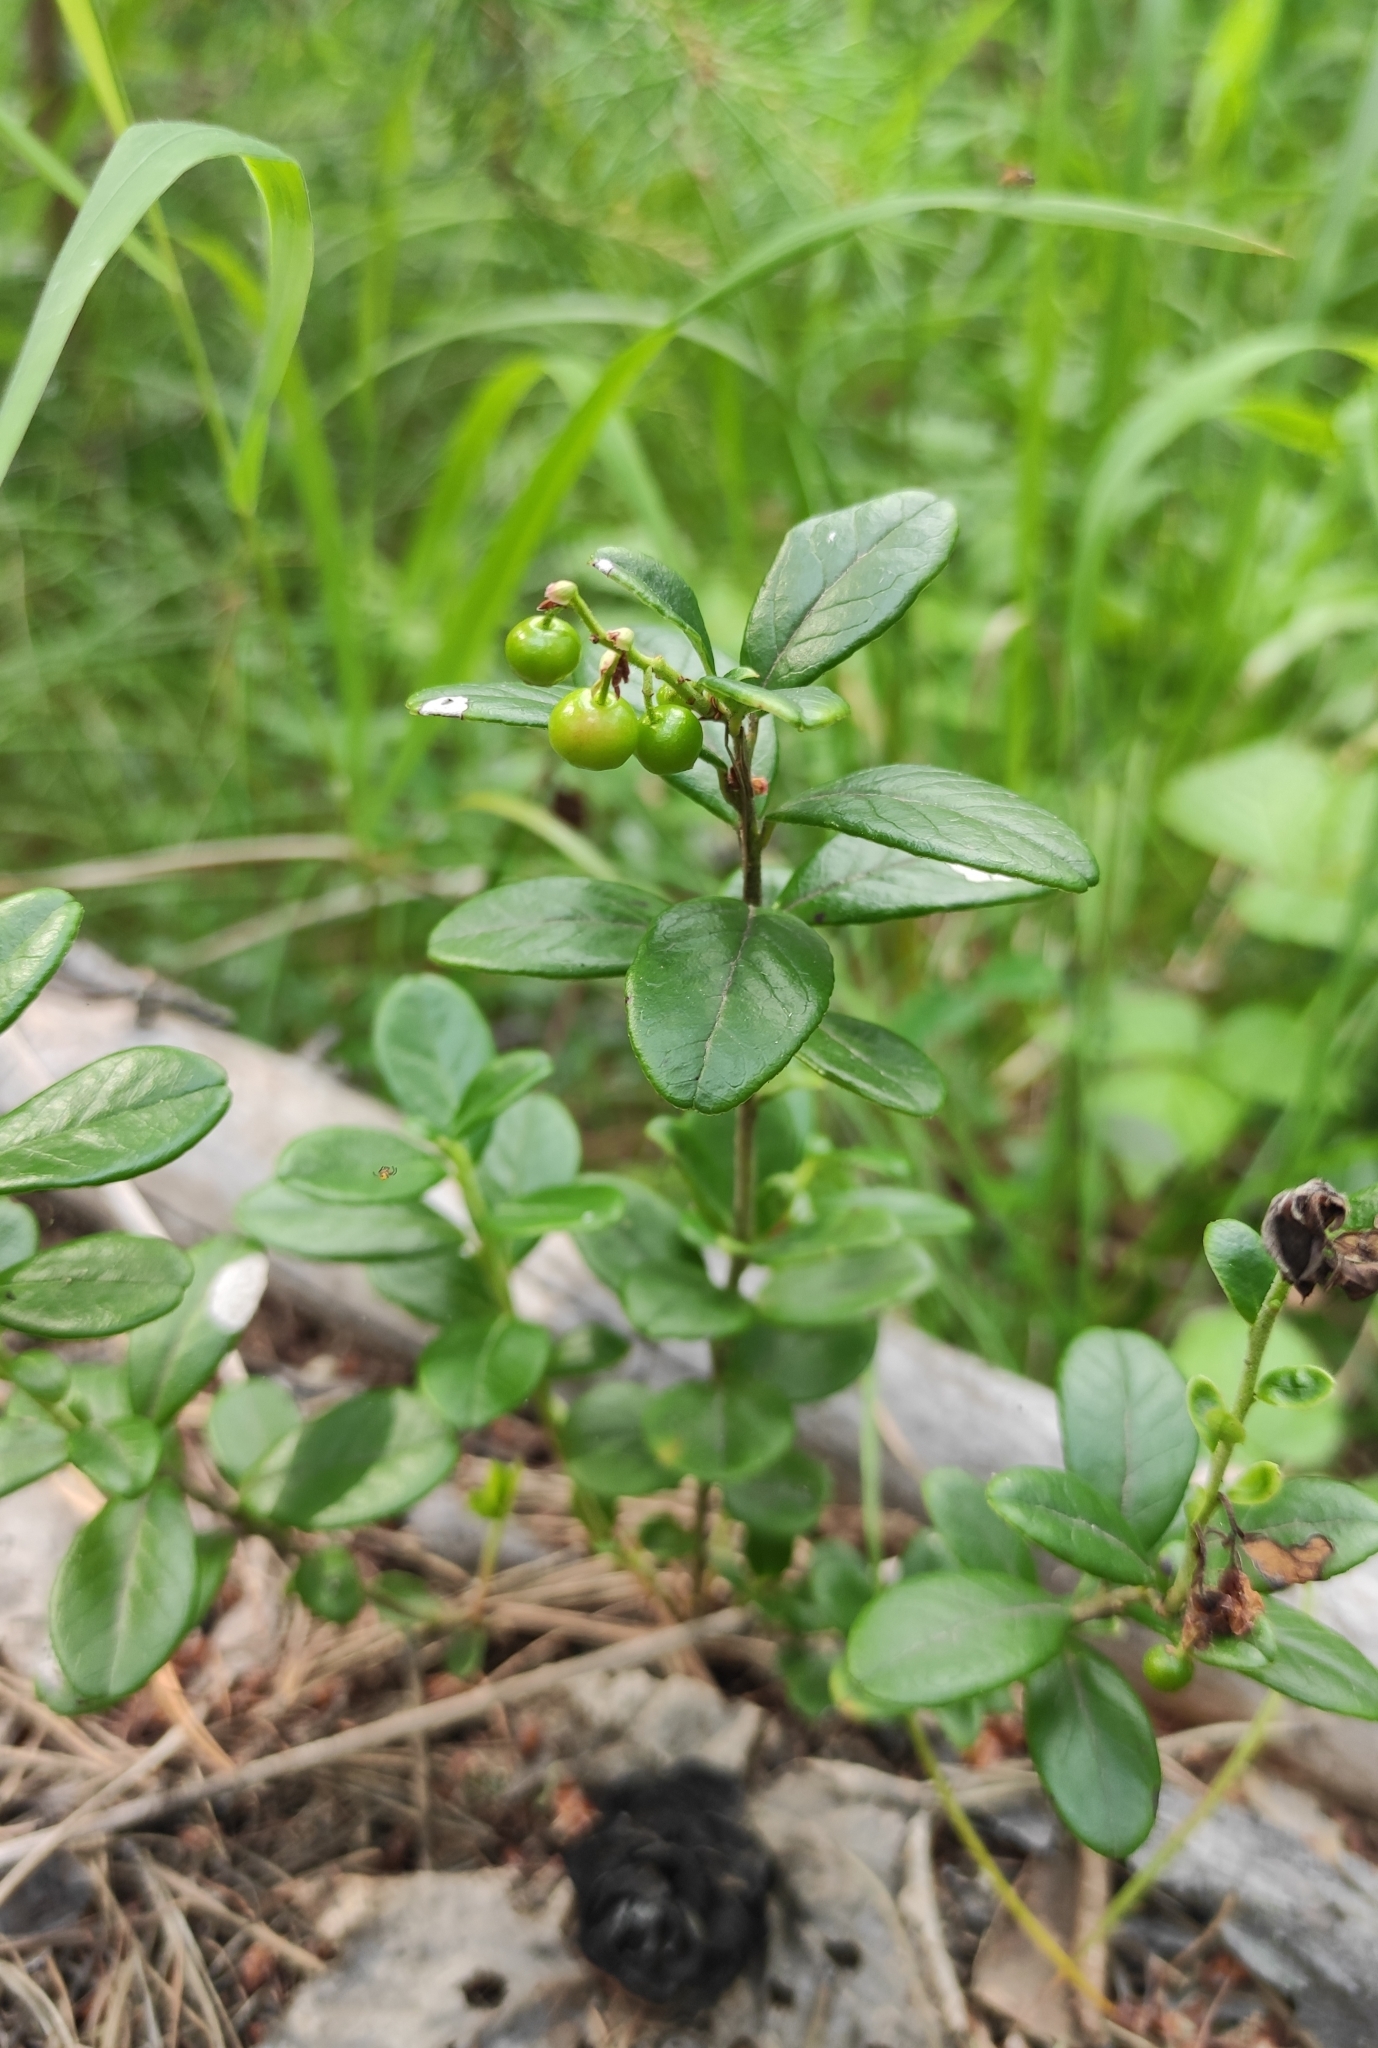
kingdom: Plantae
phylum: Tracheophyta
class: Magnoliopsida
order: Ericales
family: Ericaceae
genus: Vaccinium
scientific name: Vaccinium vitis-idaea
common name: Cowberry
